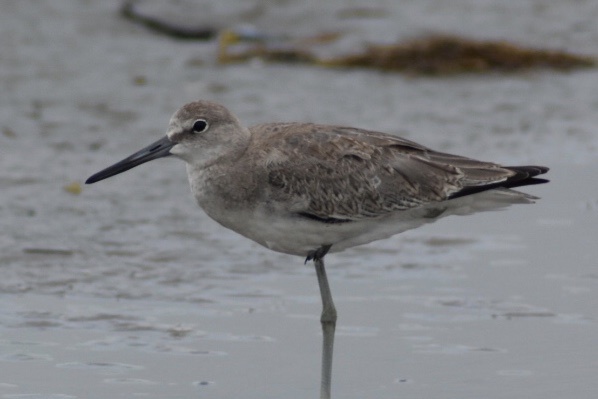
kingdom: Animalia
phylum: Chordata
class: Aves
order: Charadriiformes
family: Scolopacidae
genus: Tringa
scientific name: Tringa semipalmata
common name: Willet
